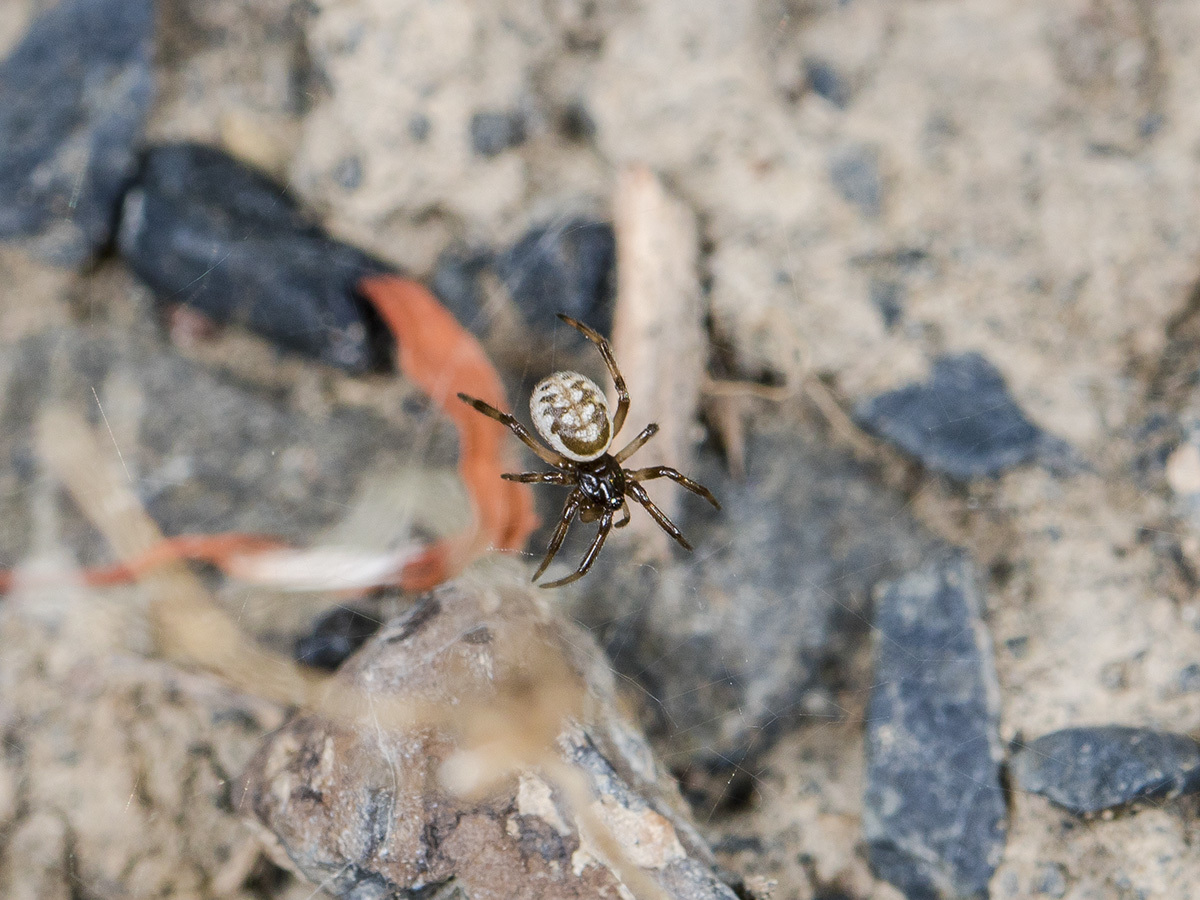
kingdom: Animalia
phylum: Arthropoda
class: Arachnida
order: Araneae
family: Theridiidae
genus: Steatoda
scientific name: Steatoda albomaculata
